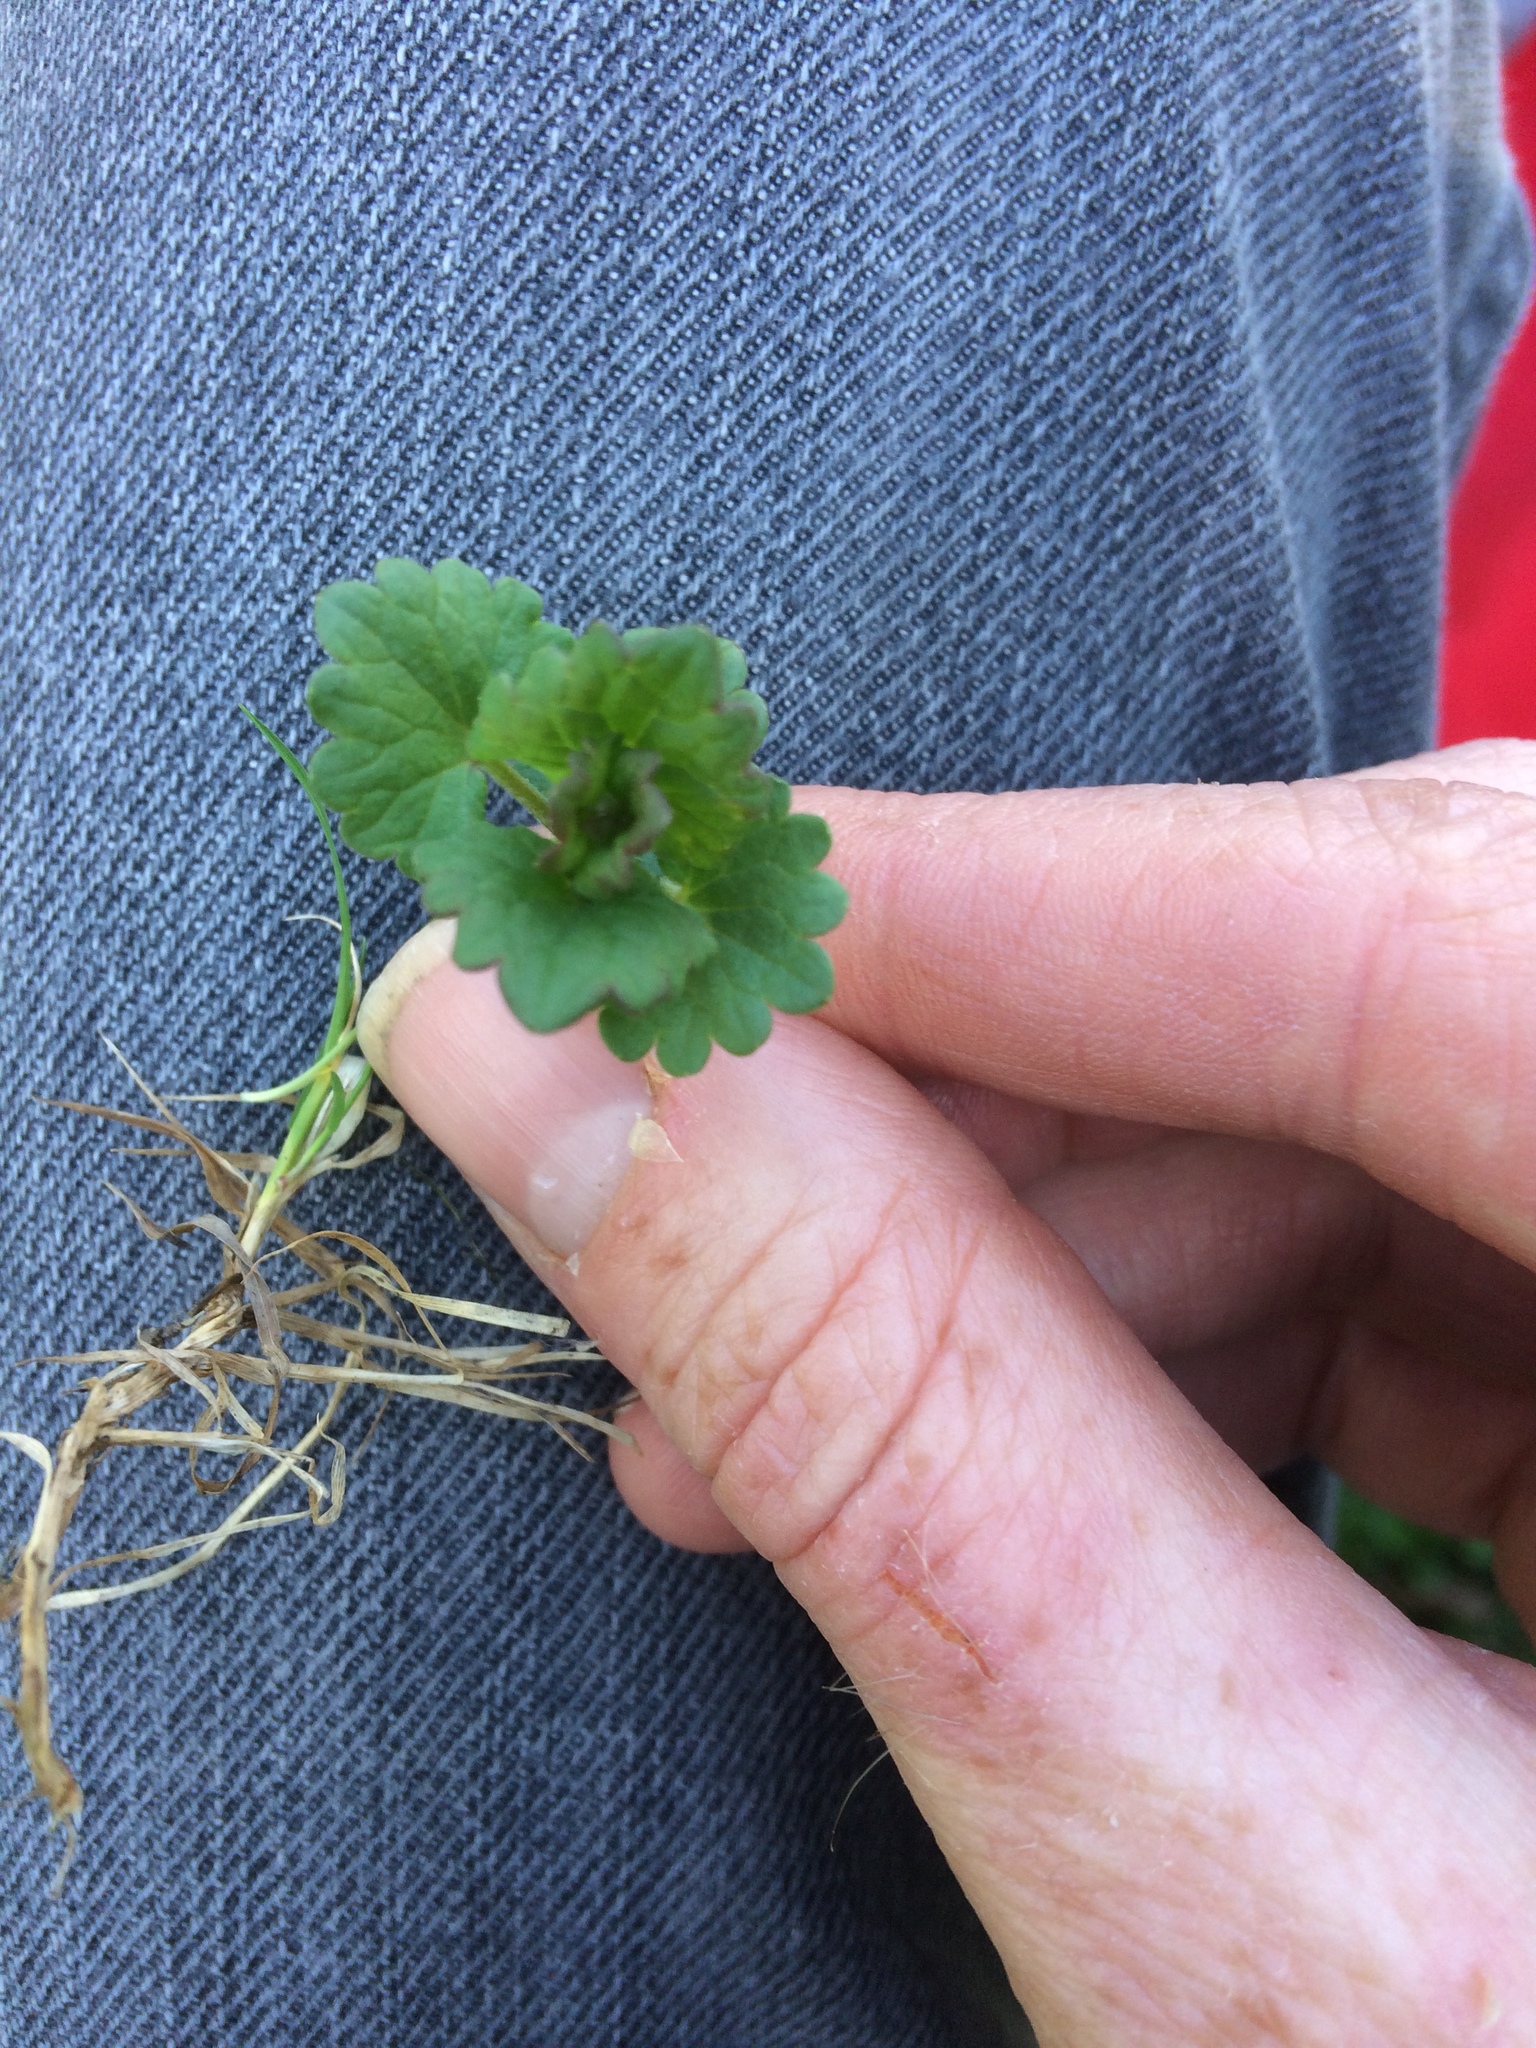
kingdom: Plantae
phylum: Tracheophyta
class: Magnoliopsida
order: Lamiales
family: Lamiaceae
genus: Glechoma
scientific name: Glechoma hederacea
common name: Ground ivy
